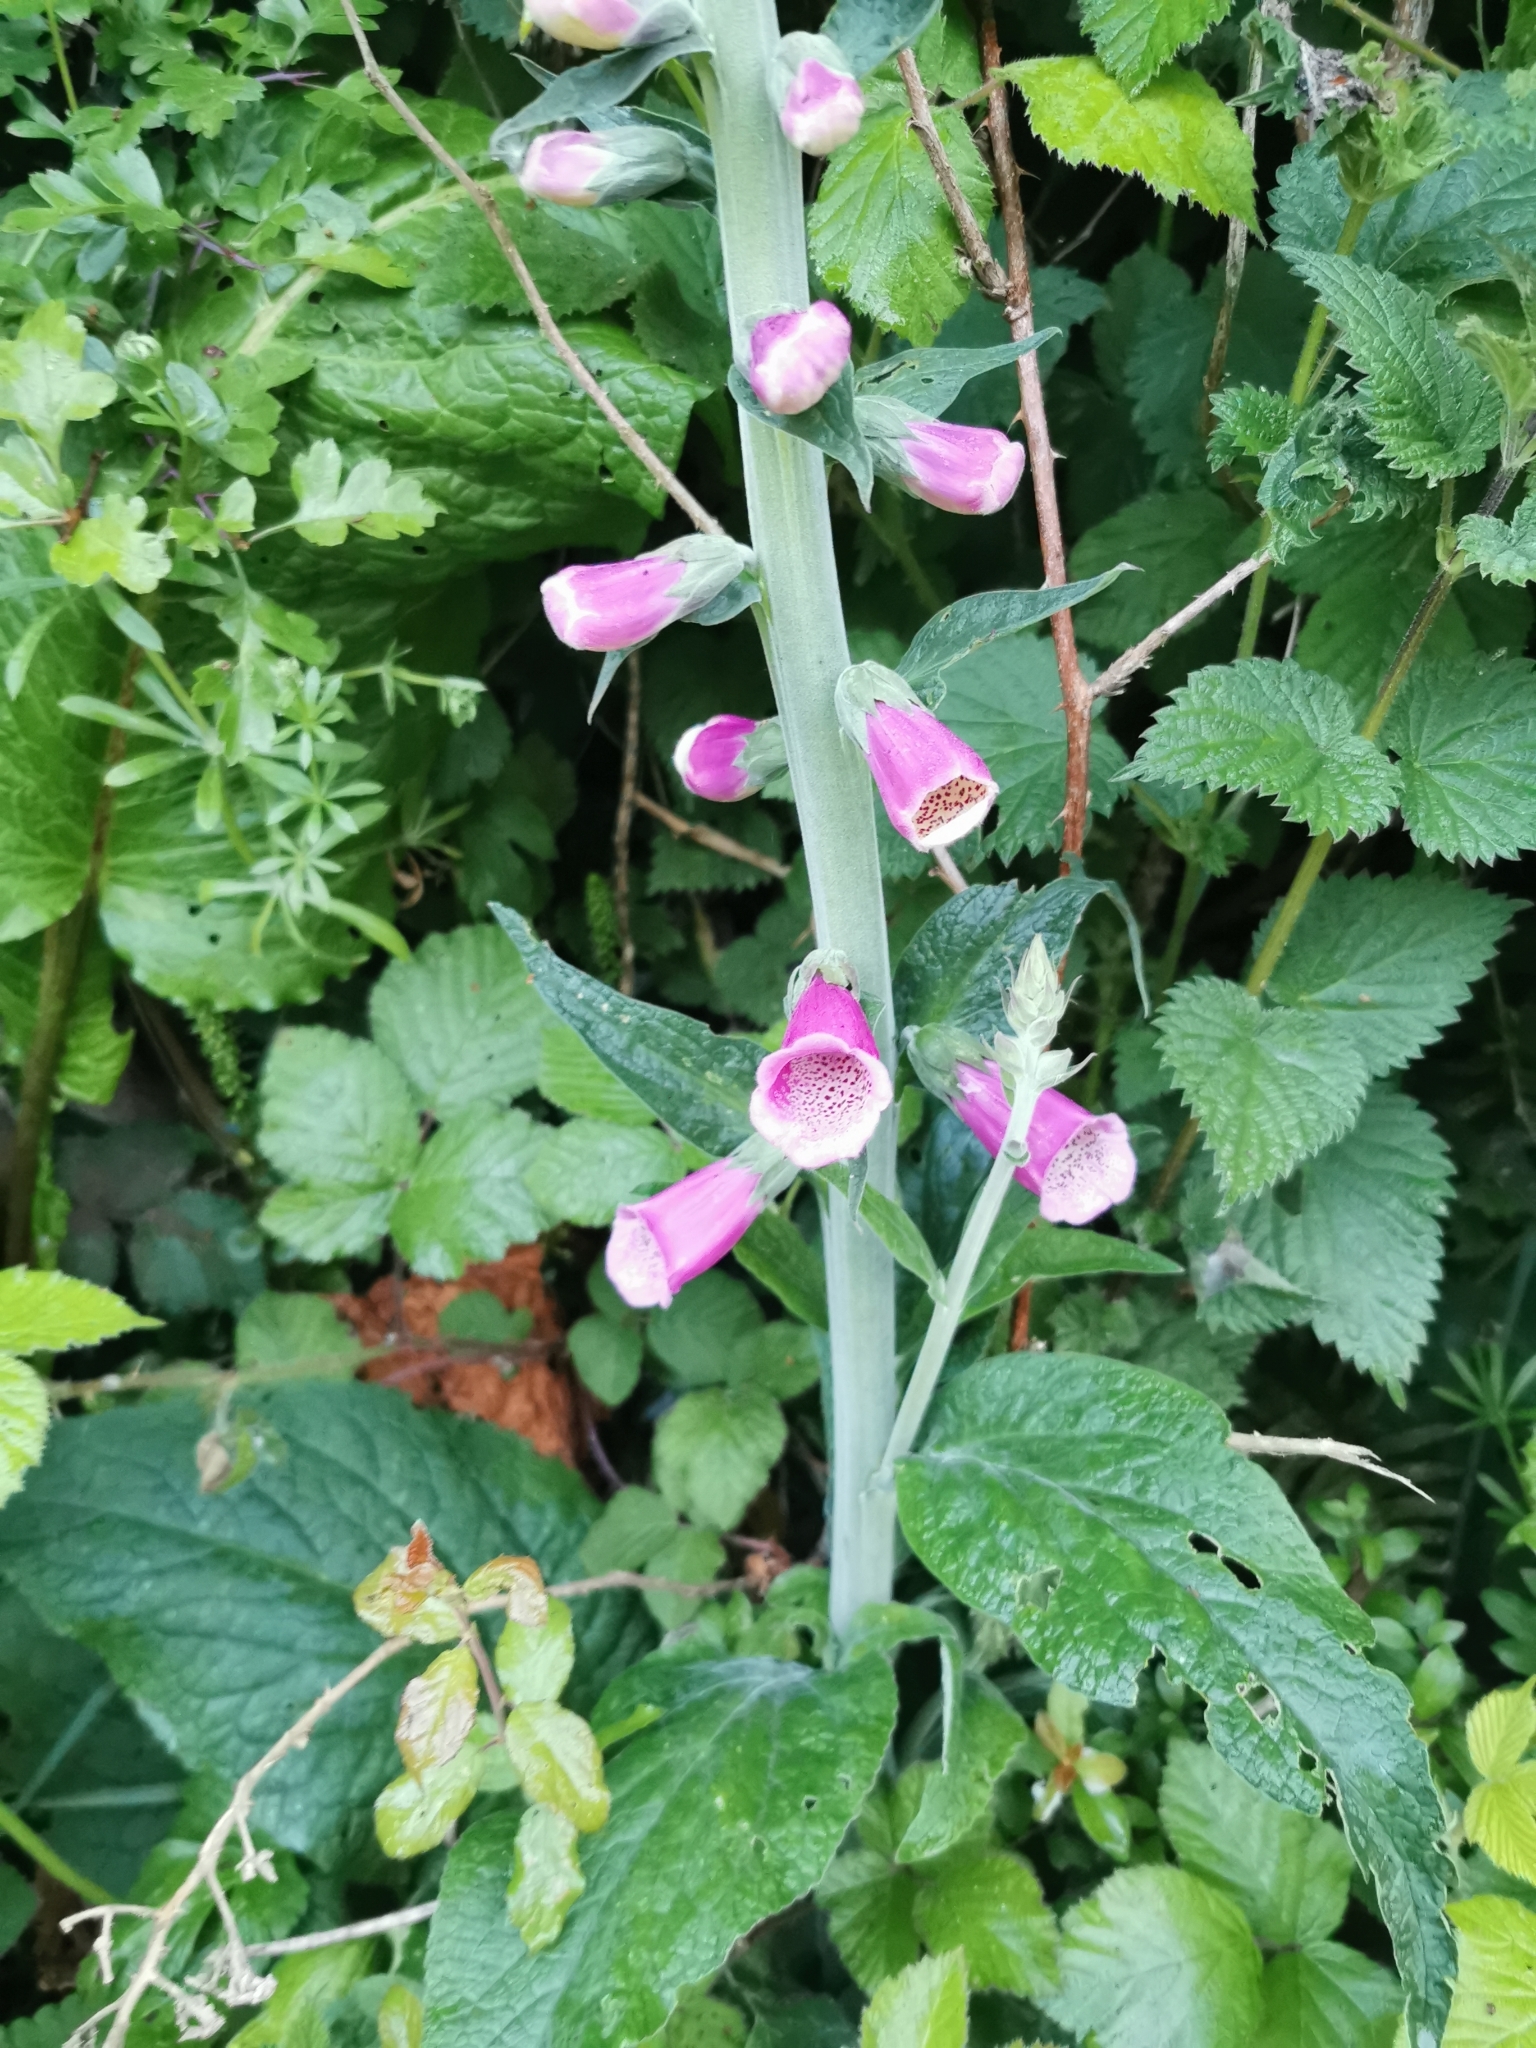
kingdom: Plantae
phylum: Tracheophyta
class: Magnoliopsida
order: Lamiales
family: Plantaginaceae
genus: Digitalis
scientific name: Digitalis purpurea
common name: Foxglove
